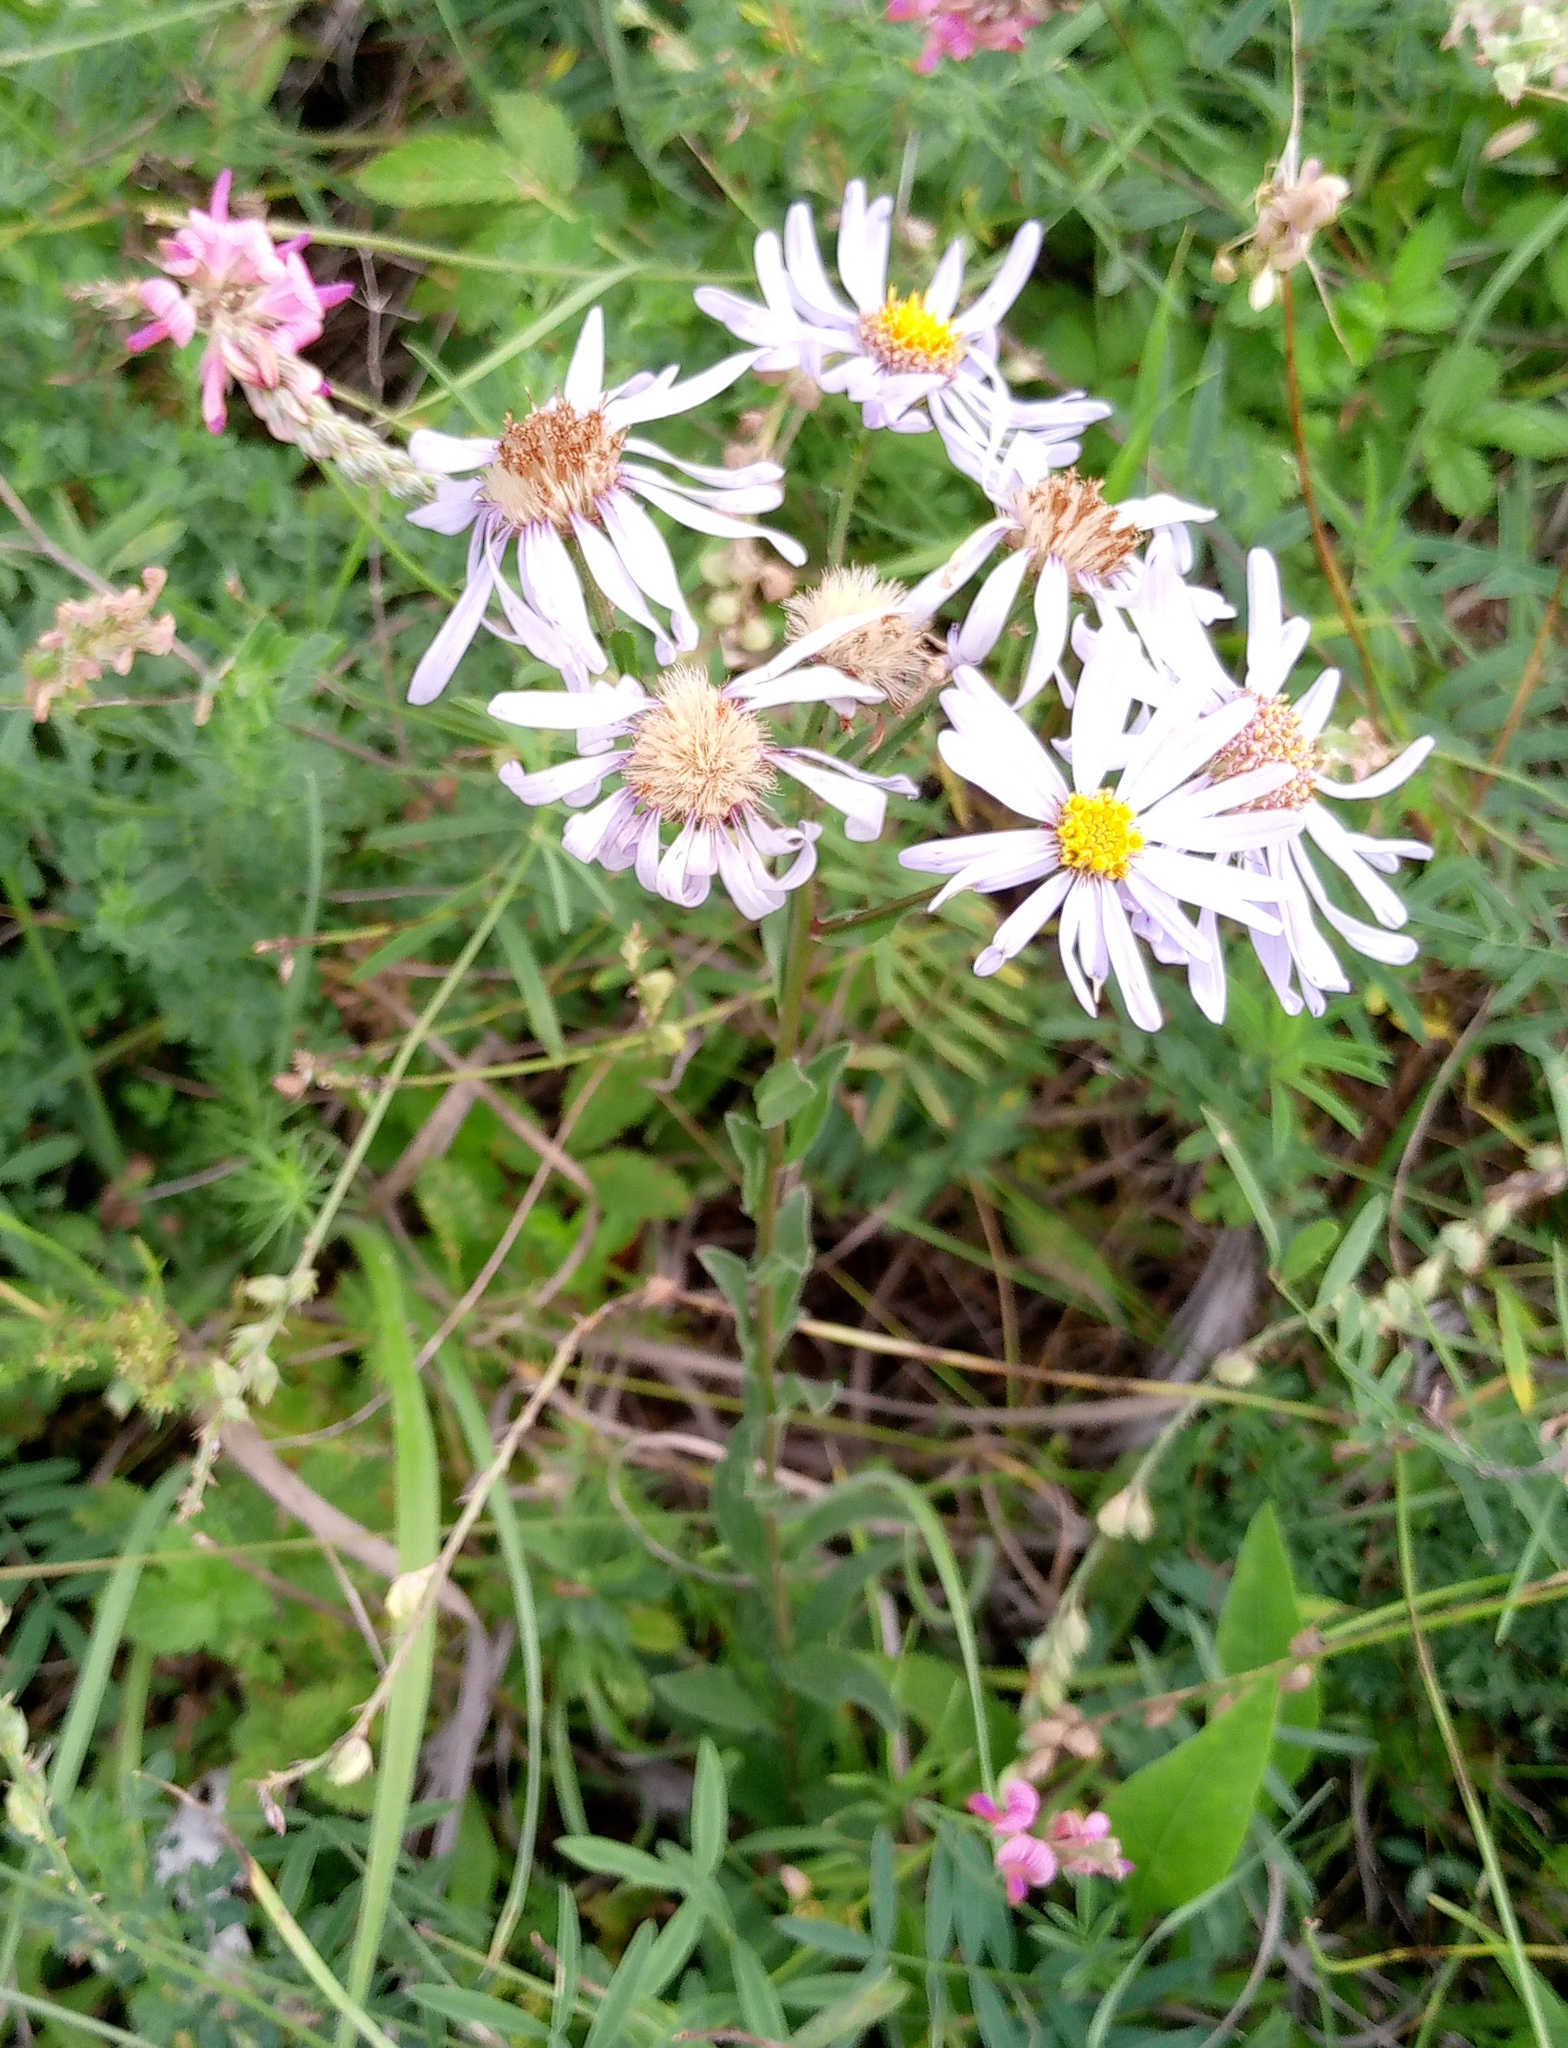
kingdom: Plantae
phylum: Tracheophyta
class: Magnoliopsida
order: Asterales
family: Asteraceae
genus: Aster
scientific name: Aster amellus
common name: European michaelmas daisy
